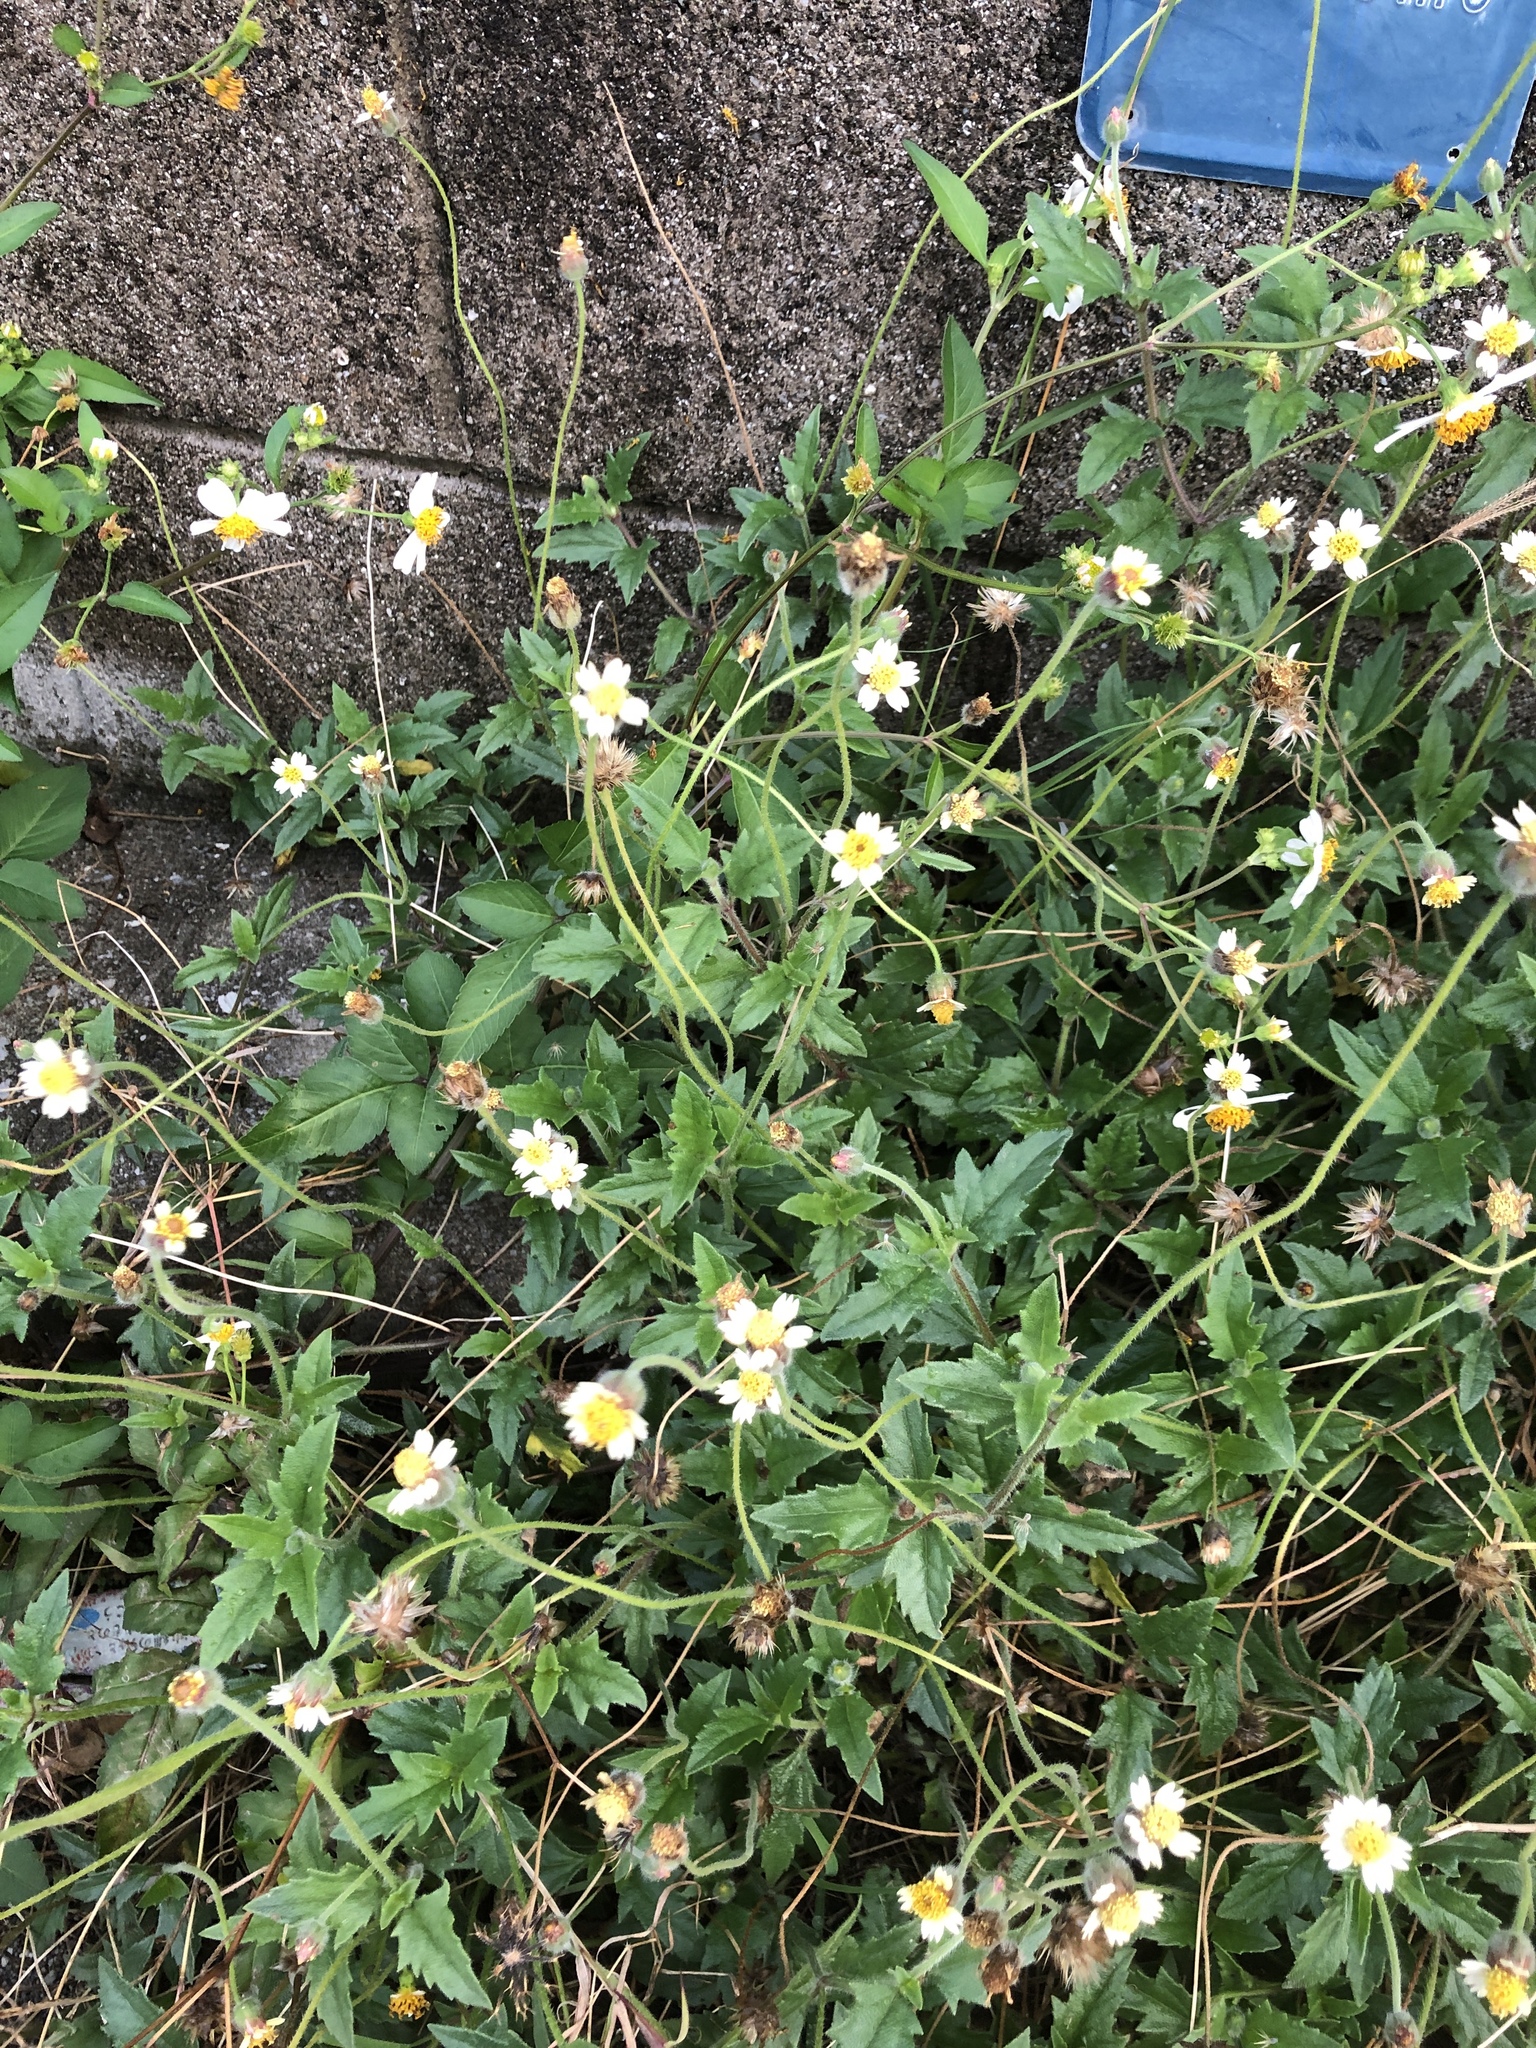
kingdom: Plantae
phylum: Tracheophyta
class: Magnoliopsida
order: Asterales
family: Asteraceae
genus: Tridax
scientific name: Tridax procumbens
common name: Coatbuttons
